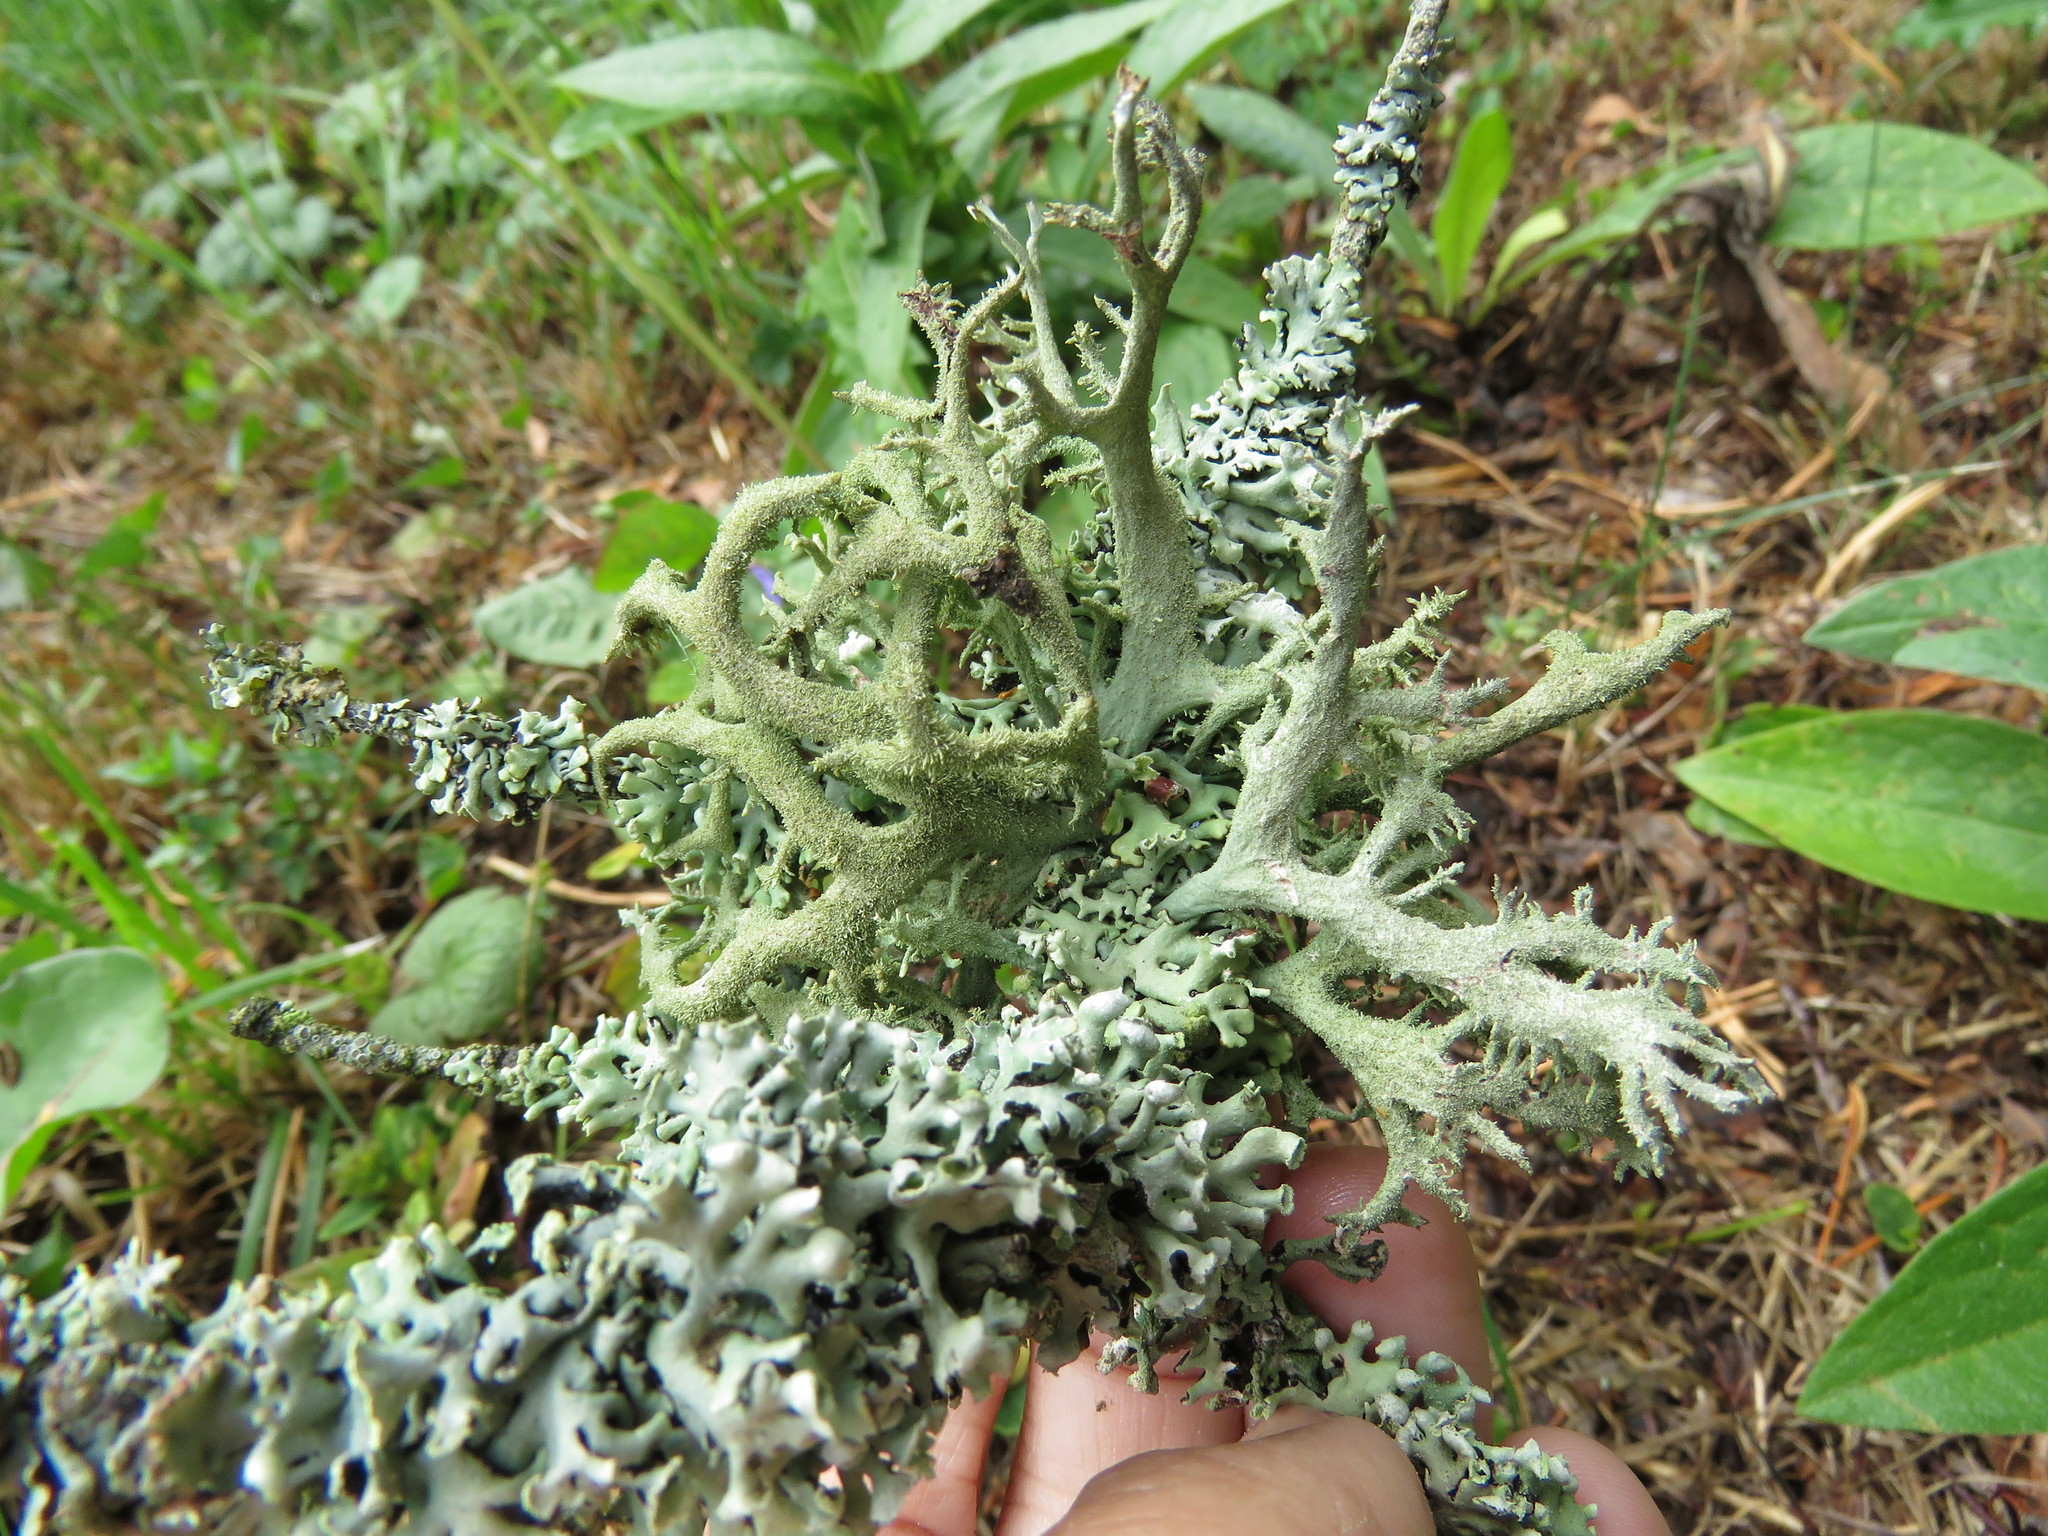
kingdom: Fungi
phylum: Ascomycota
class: Lecanoromycetes
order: Lecanorales
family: Parmeliaceae
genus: Pseudevernia
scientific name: Pseudevernia furfuracea
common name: Tree moss
